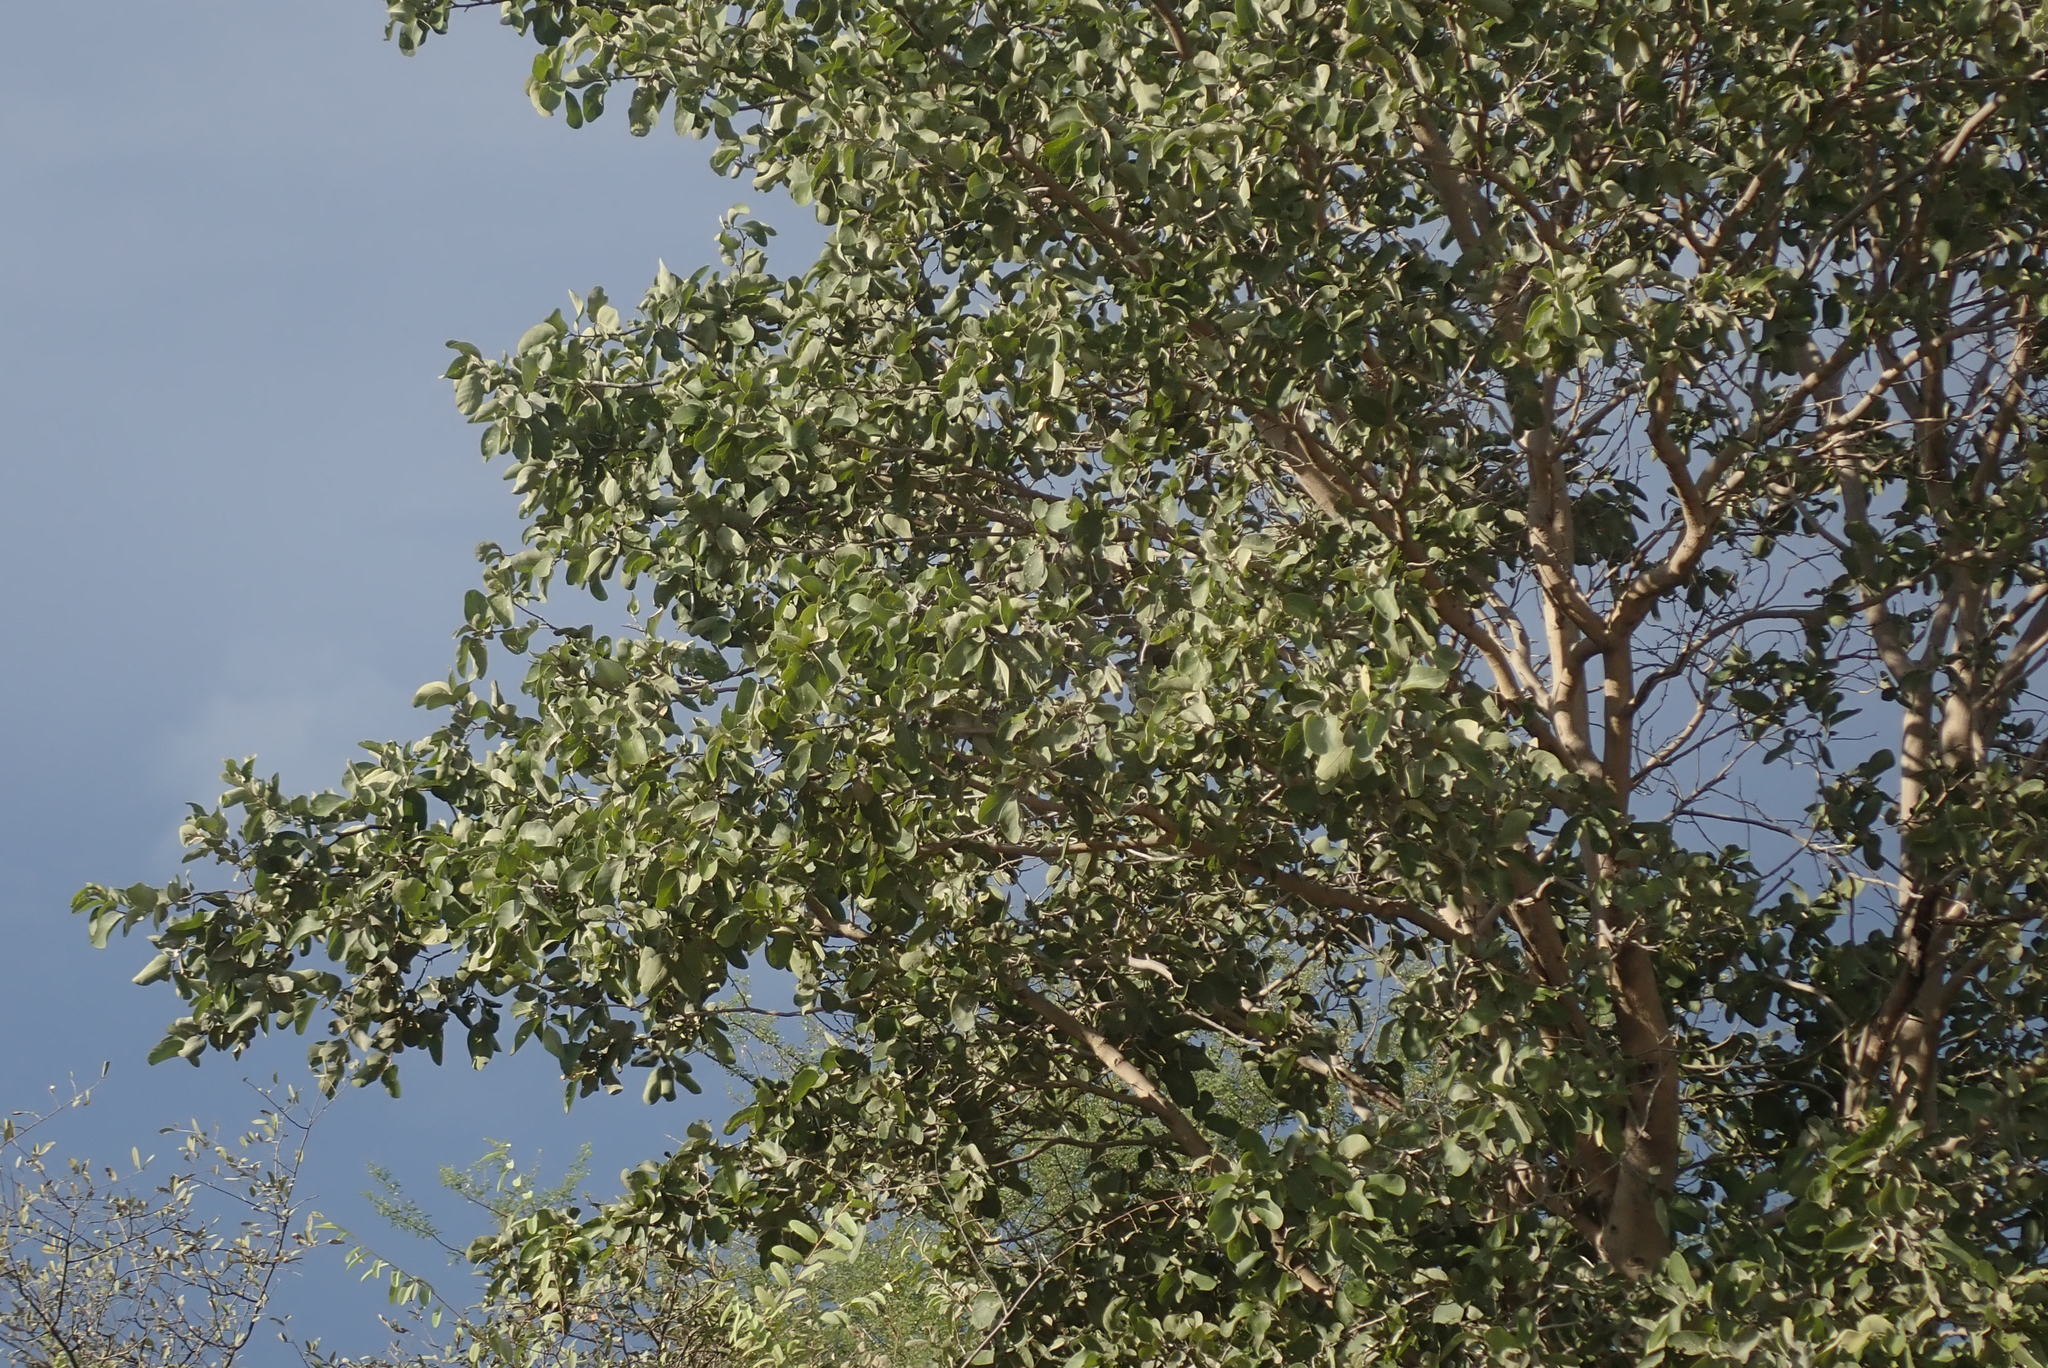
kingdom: Plantae
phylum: Tracheophyta
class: Magnoliopsida
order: Fabales
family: Fabaceae
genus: Philenoptera
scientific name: Philenoptera nelsii
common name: Kalahari apple-leaf
